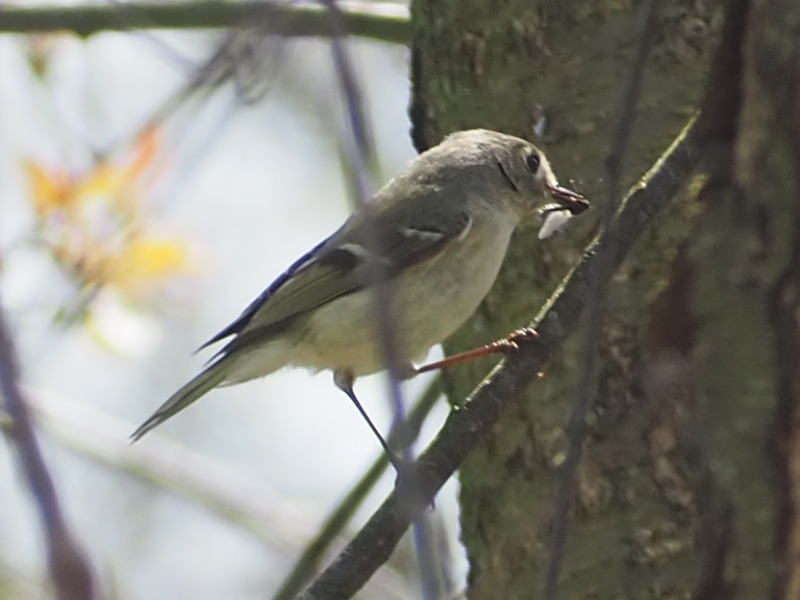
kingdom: Animalia
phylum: Chordata
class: Aves
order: Passeriformes
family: Regulidae
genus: Regulus
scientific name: Regulus calendula
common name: Ruby-crowned kinglet
